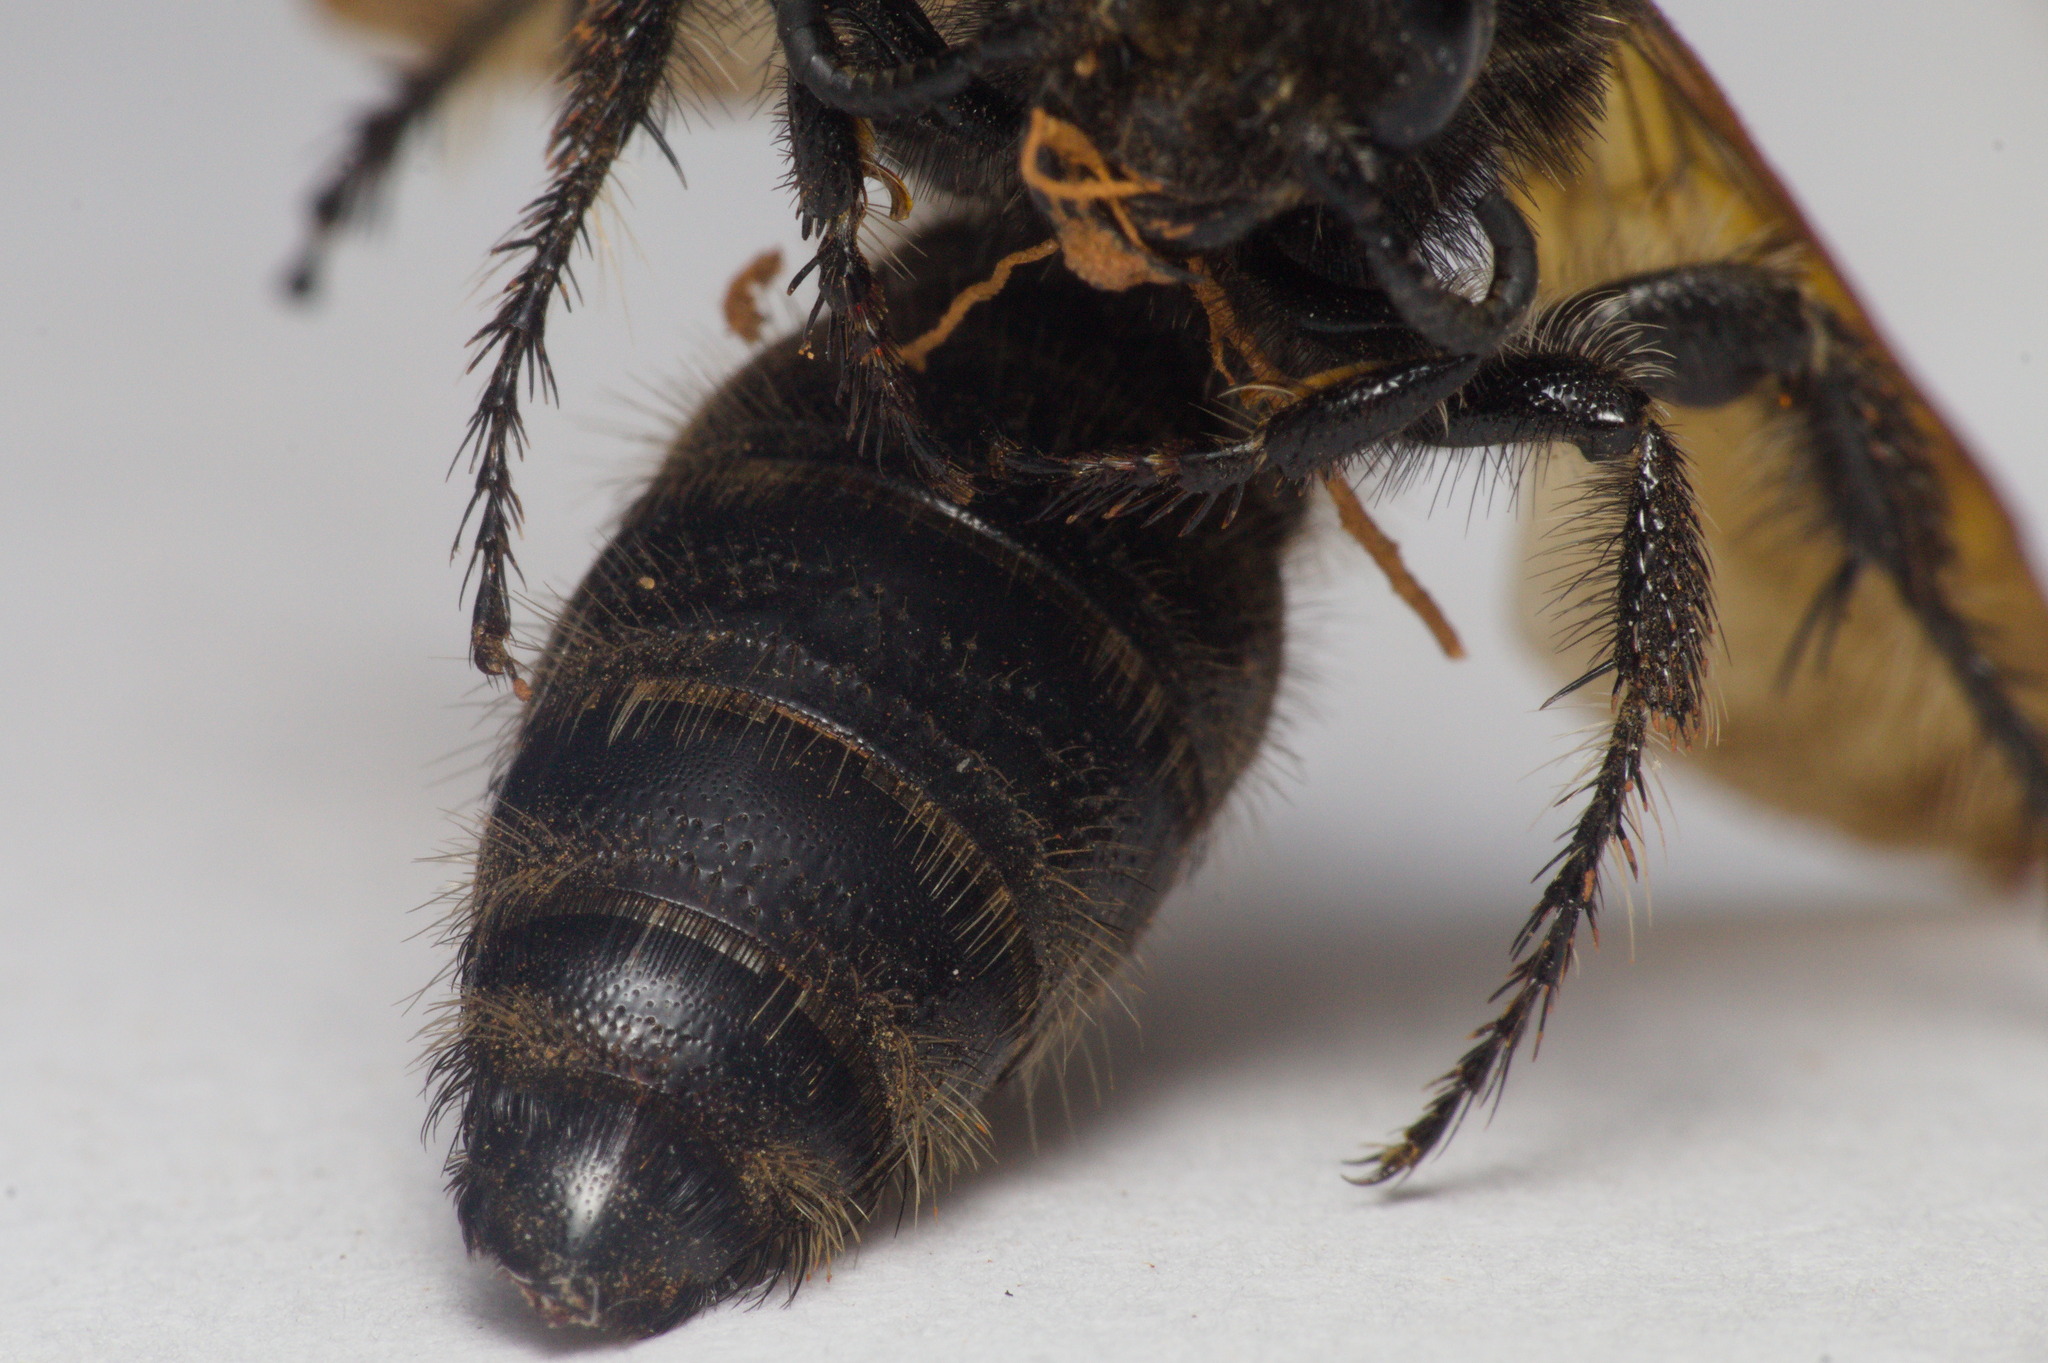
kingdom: Animalia
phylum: Arthropoda
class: Insecta
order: Hymenoptera
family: Scoliidae
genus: Pygodasis
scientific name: Pygodasis
